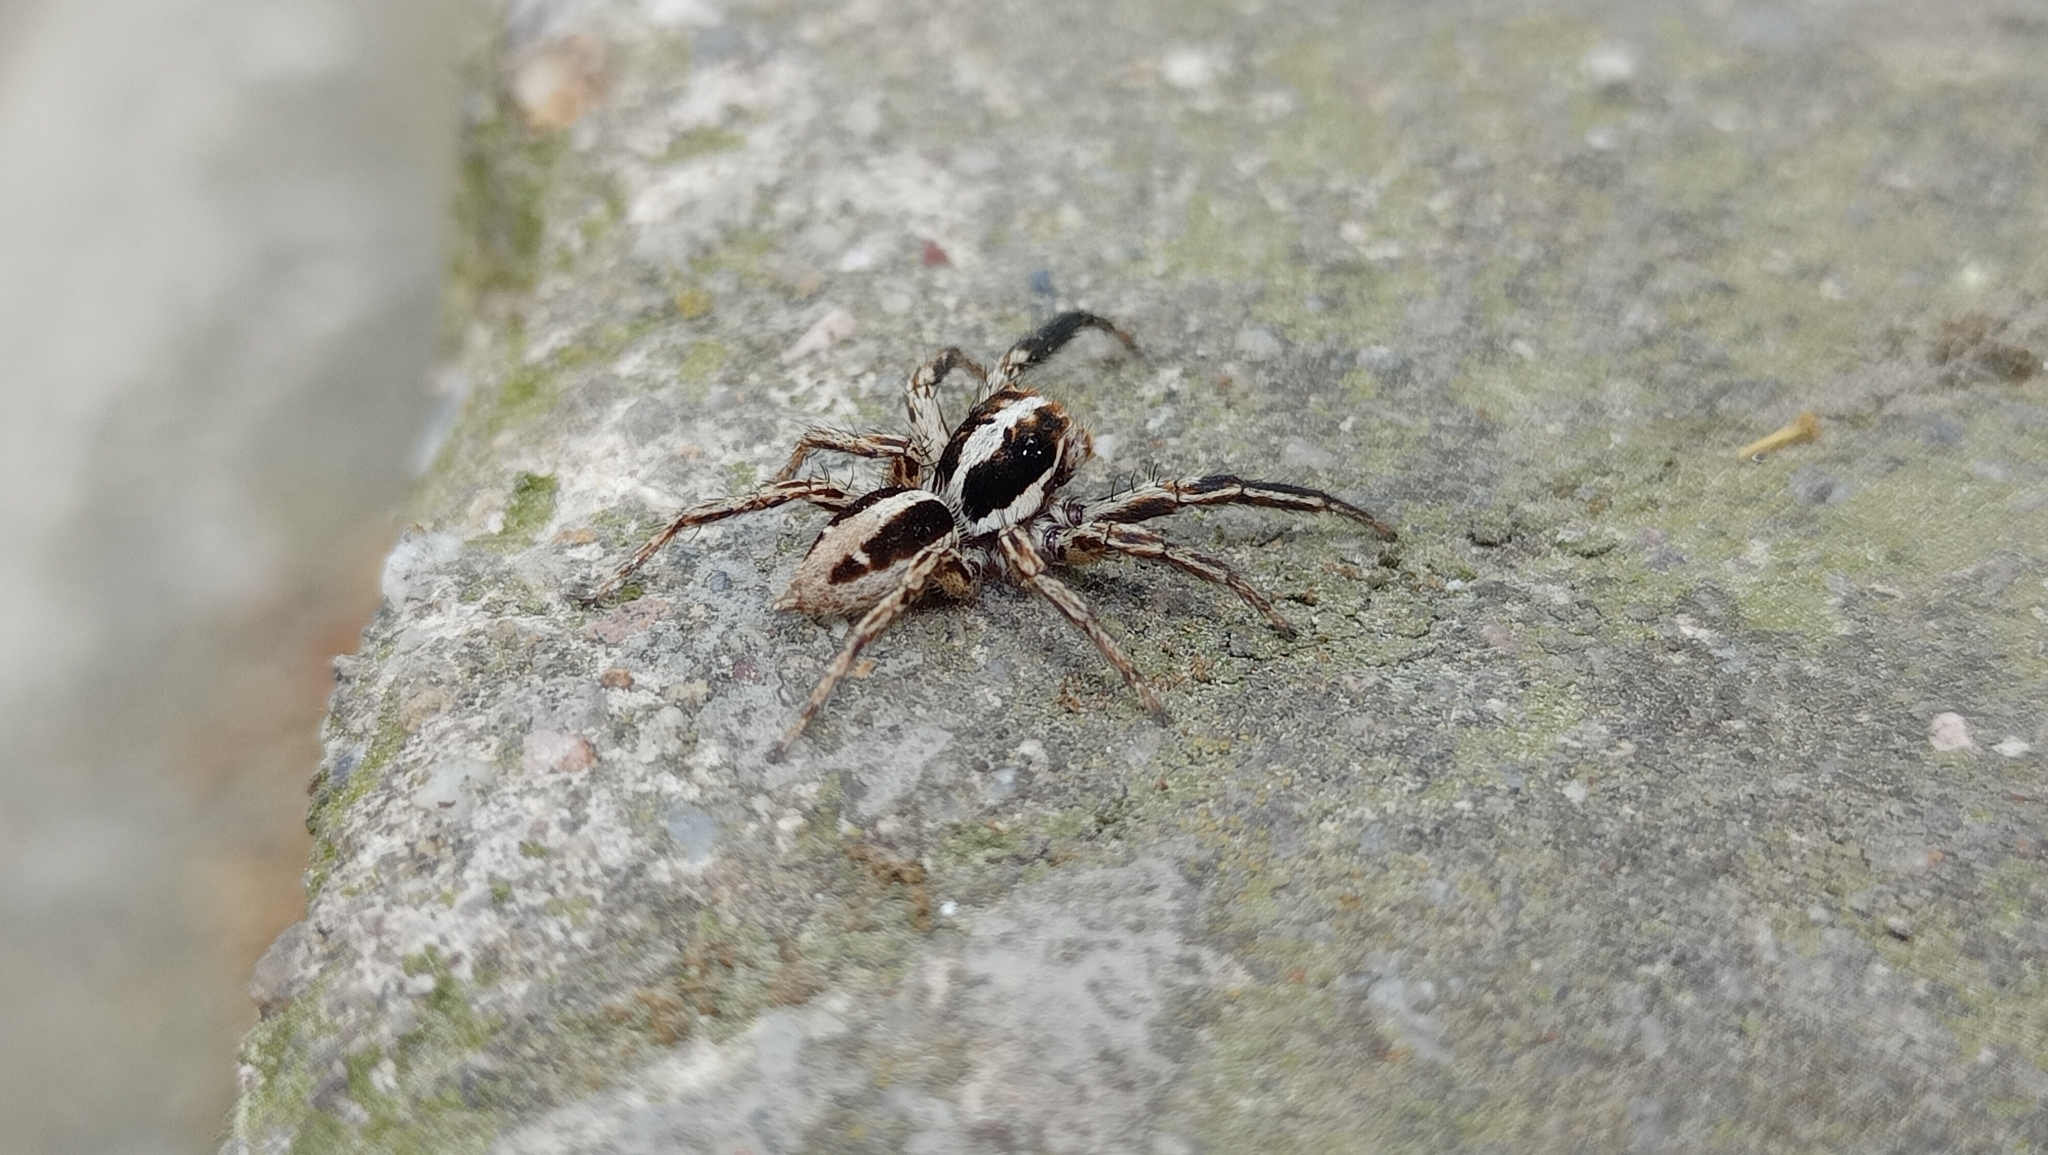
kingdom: Animalia
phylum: Arthropoda
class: Arachnida
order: Araneae
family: Salticidae
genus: Plexippus
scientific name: Plexippus paykulli
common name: Pantropical jumper
